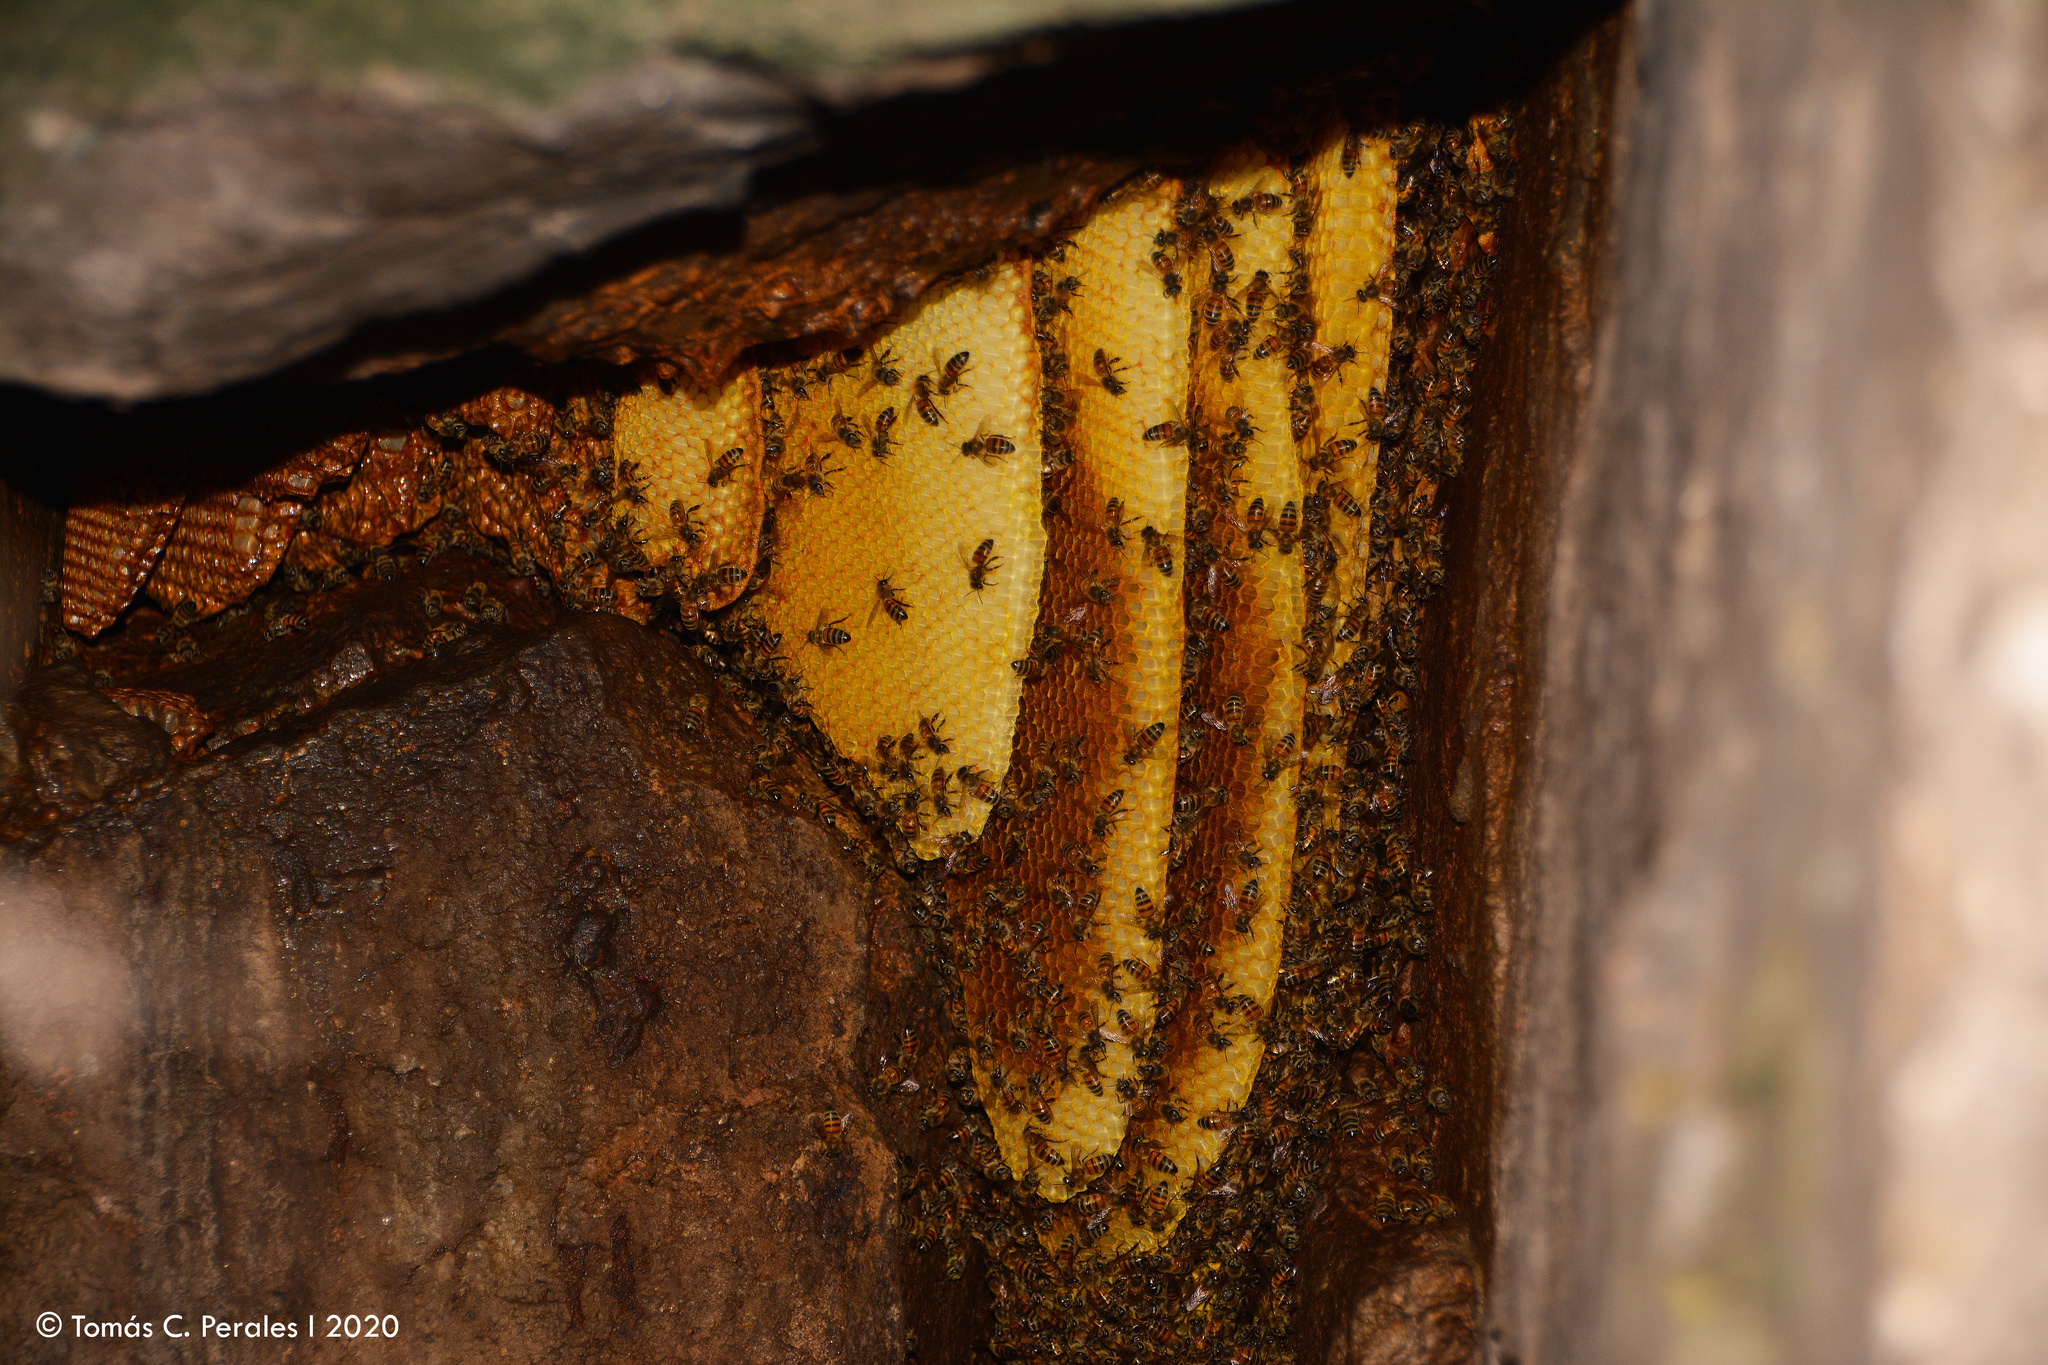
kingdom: Animalia
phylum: Arthropoda
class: Insecta
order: Hymenoptera
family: Apidae
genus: Apis
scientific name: Apis mellifera
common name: Honey bee
